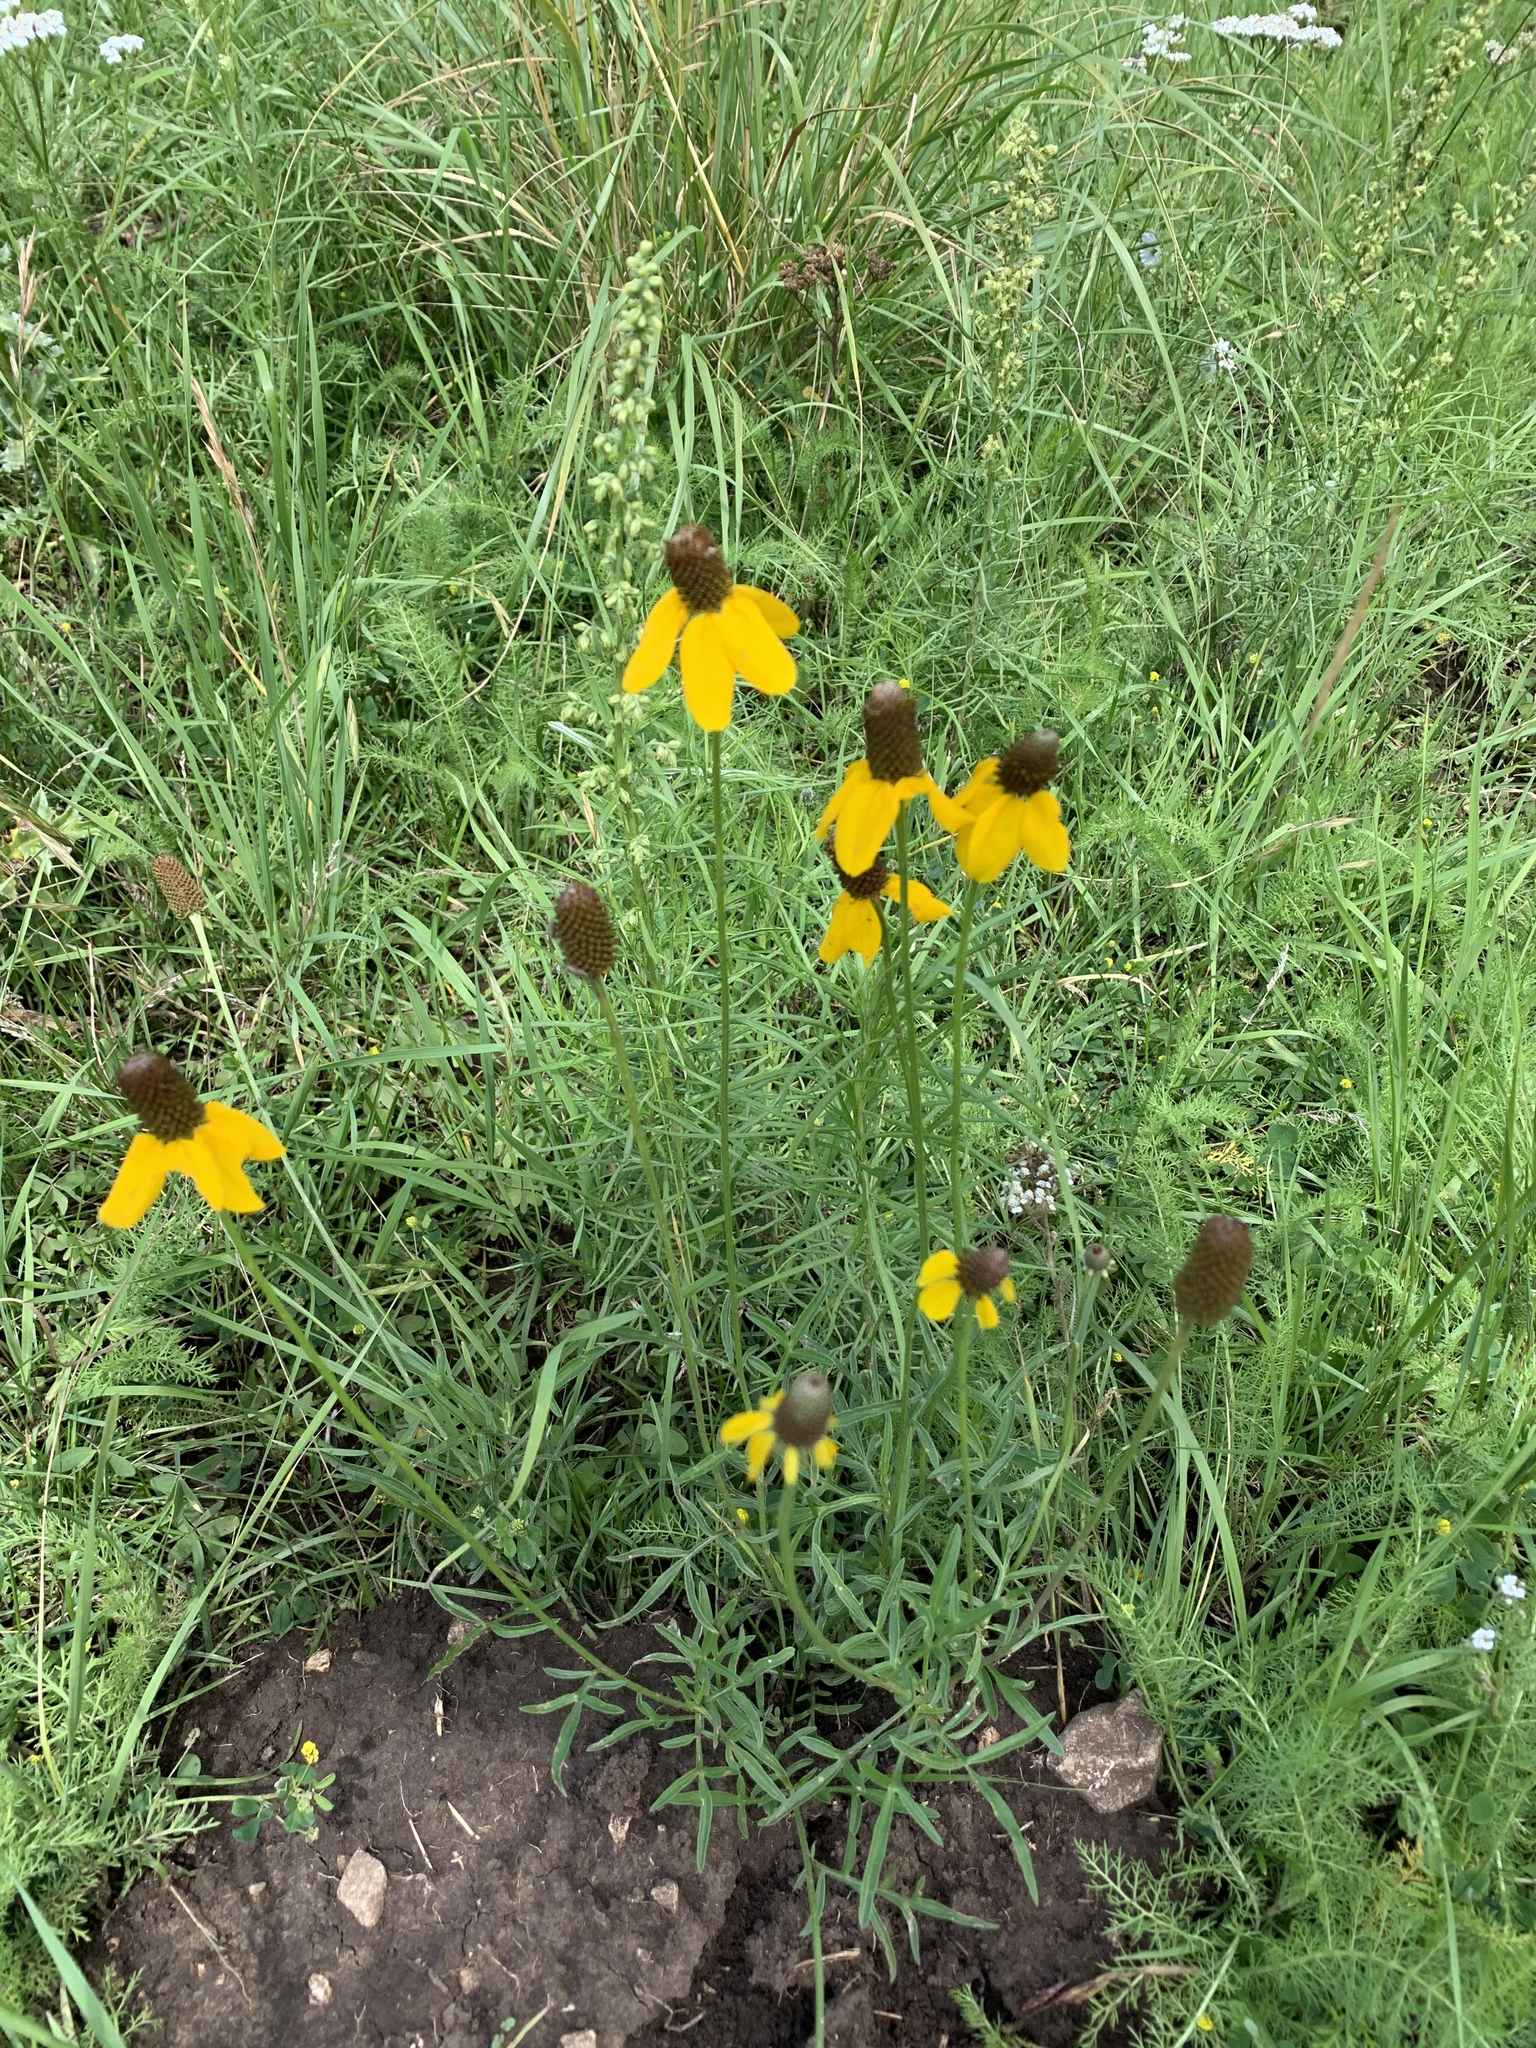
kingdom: Plantae
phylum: Tracheophyta
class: Magnoliopsida
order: Asterales
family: Asteraceae
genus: Ratibida
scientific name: Ratibida columnifera
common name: Prairie coneflower
